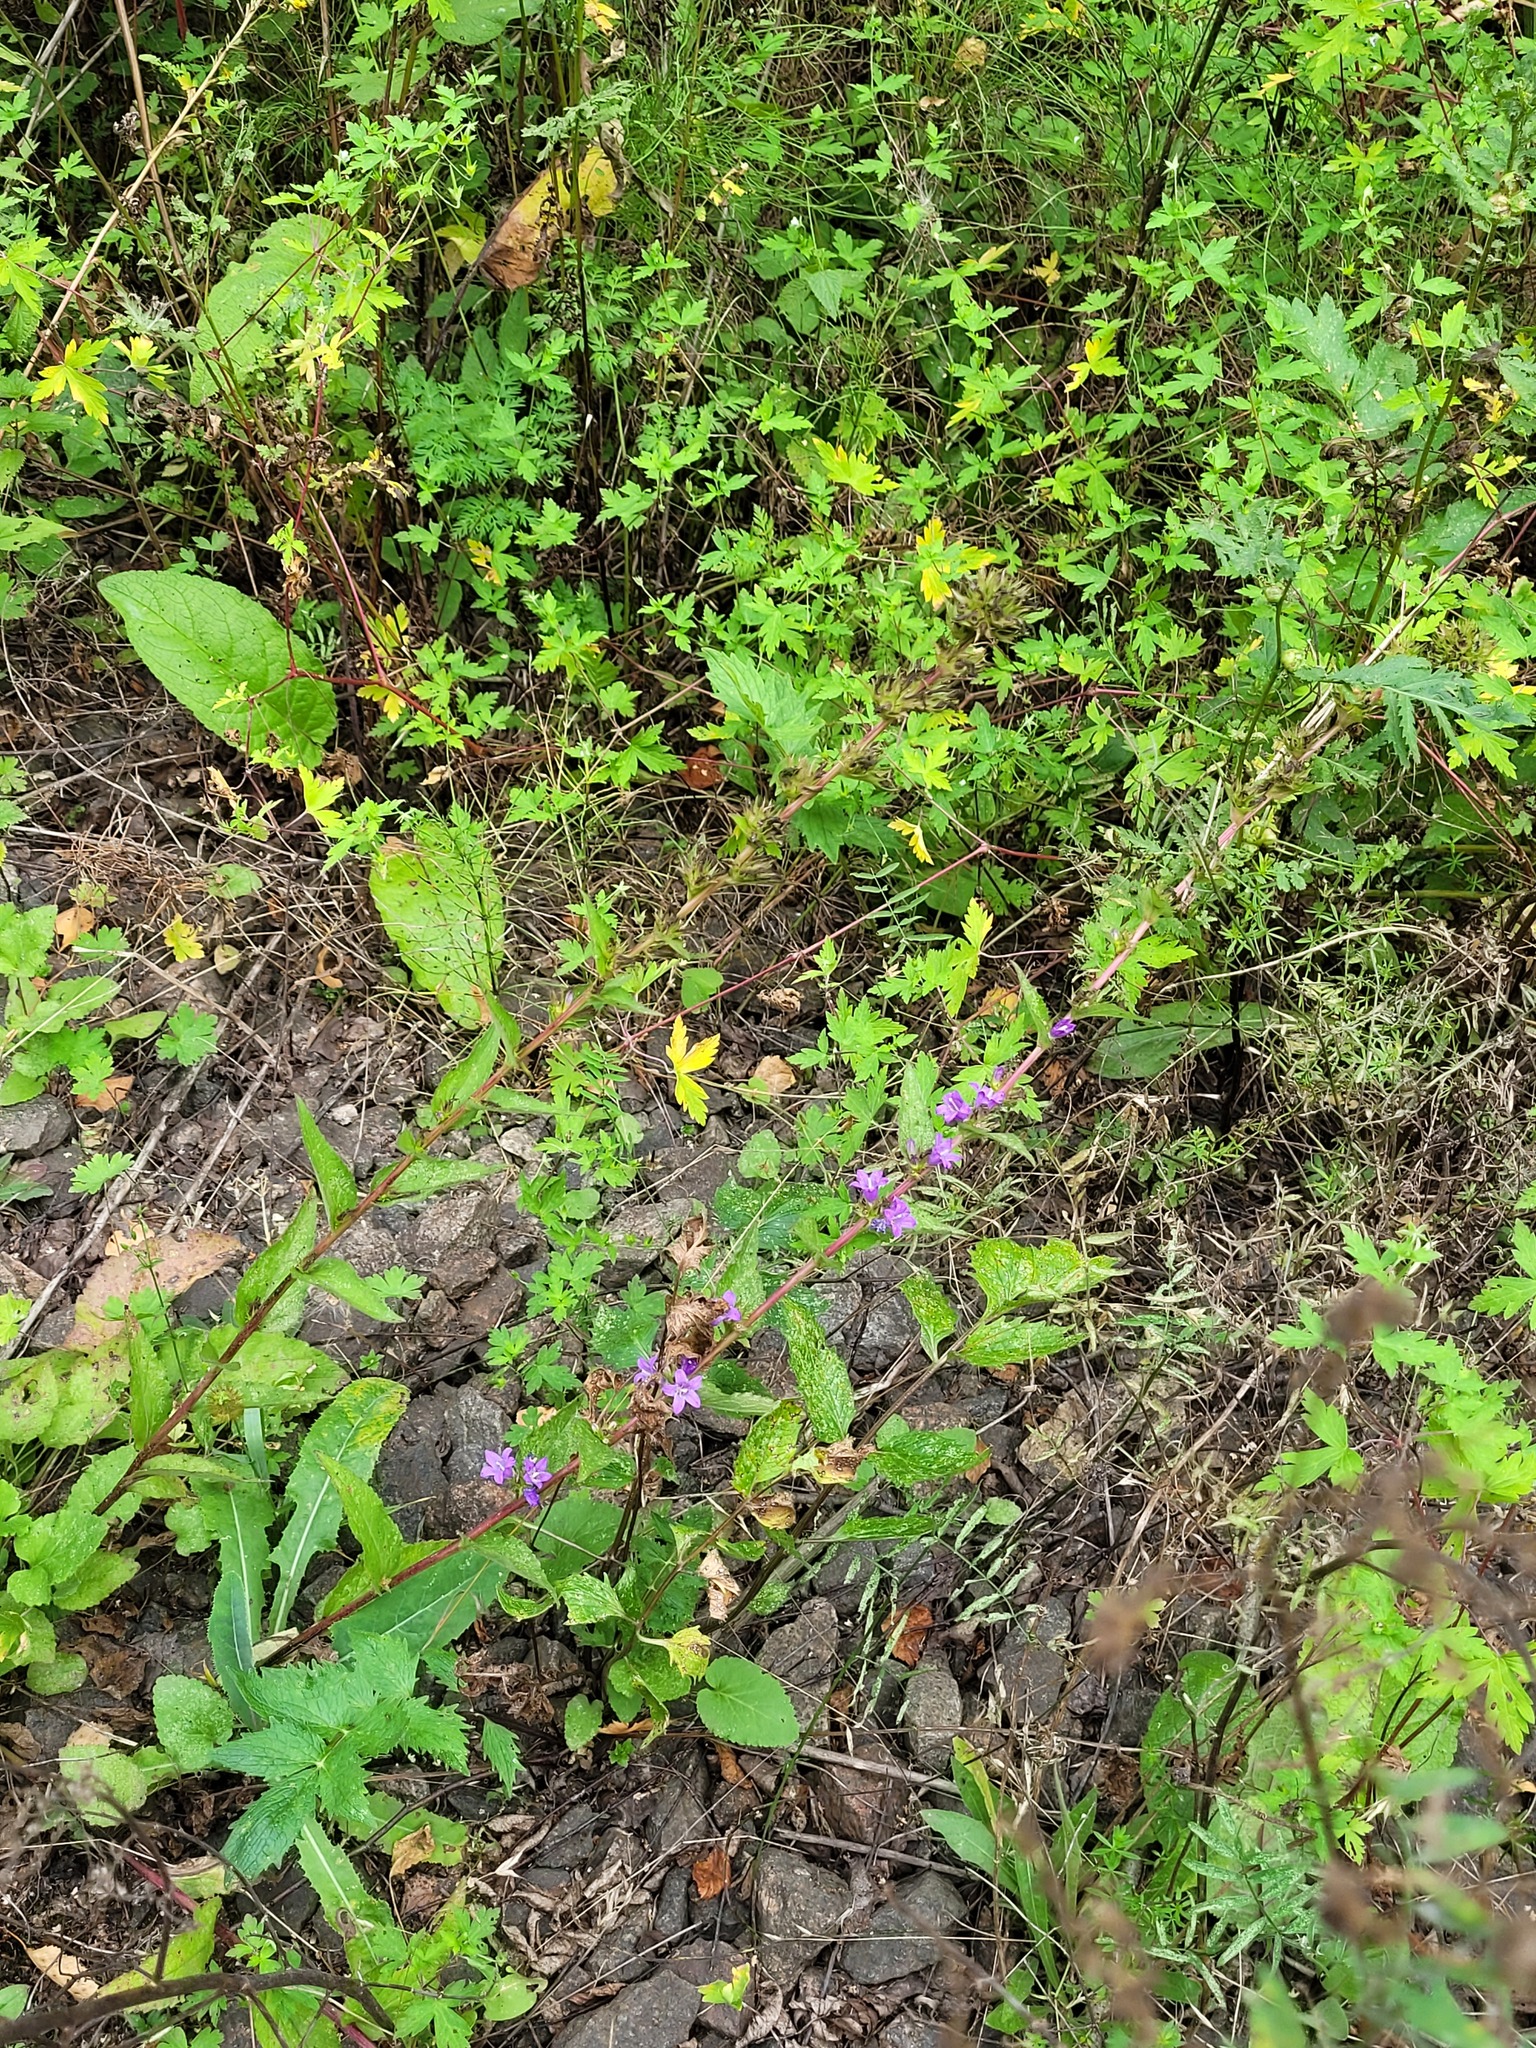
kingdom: Plantae
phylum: Tracheophyta
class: Magnoliopsida
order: Asterales
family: Campanulaceae
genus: Campanula
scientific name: Campanula glomerata
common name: Clustered bellflower
